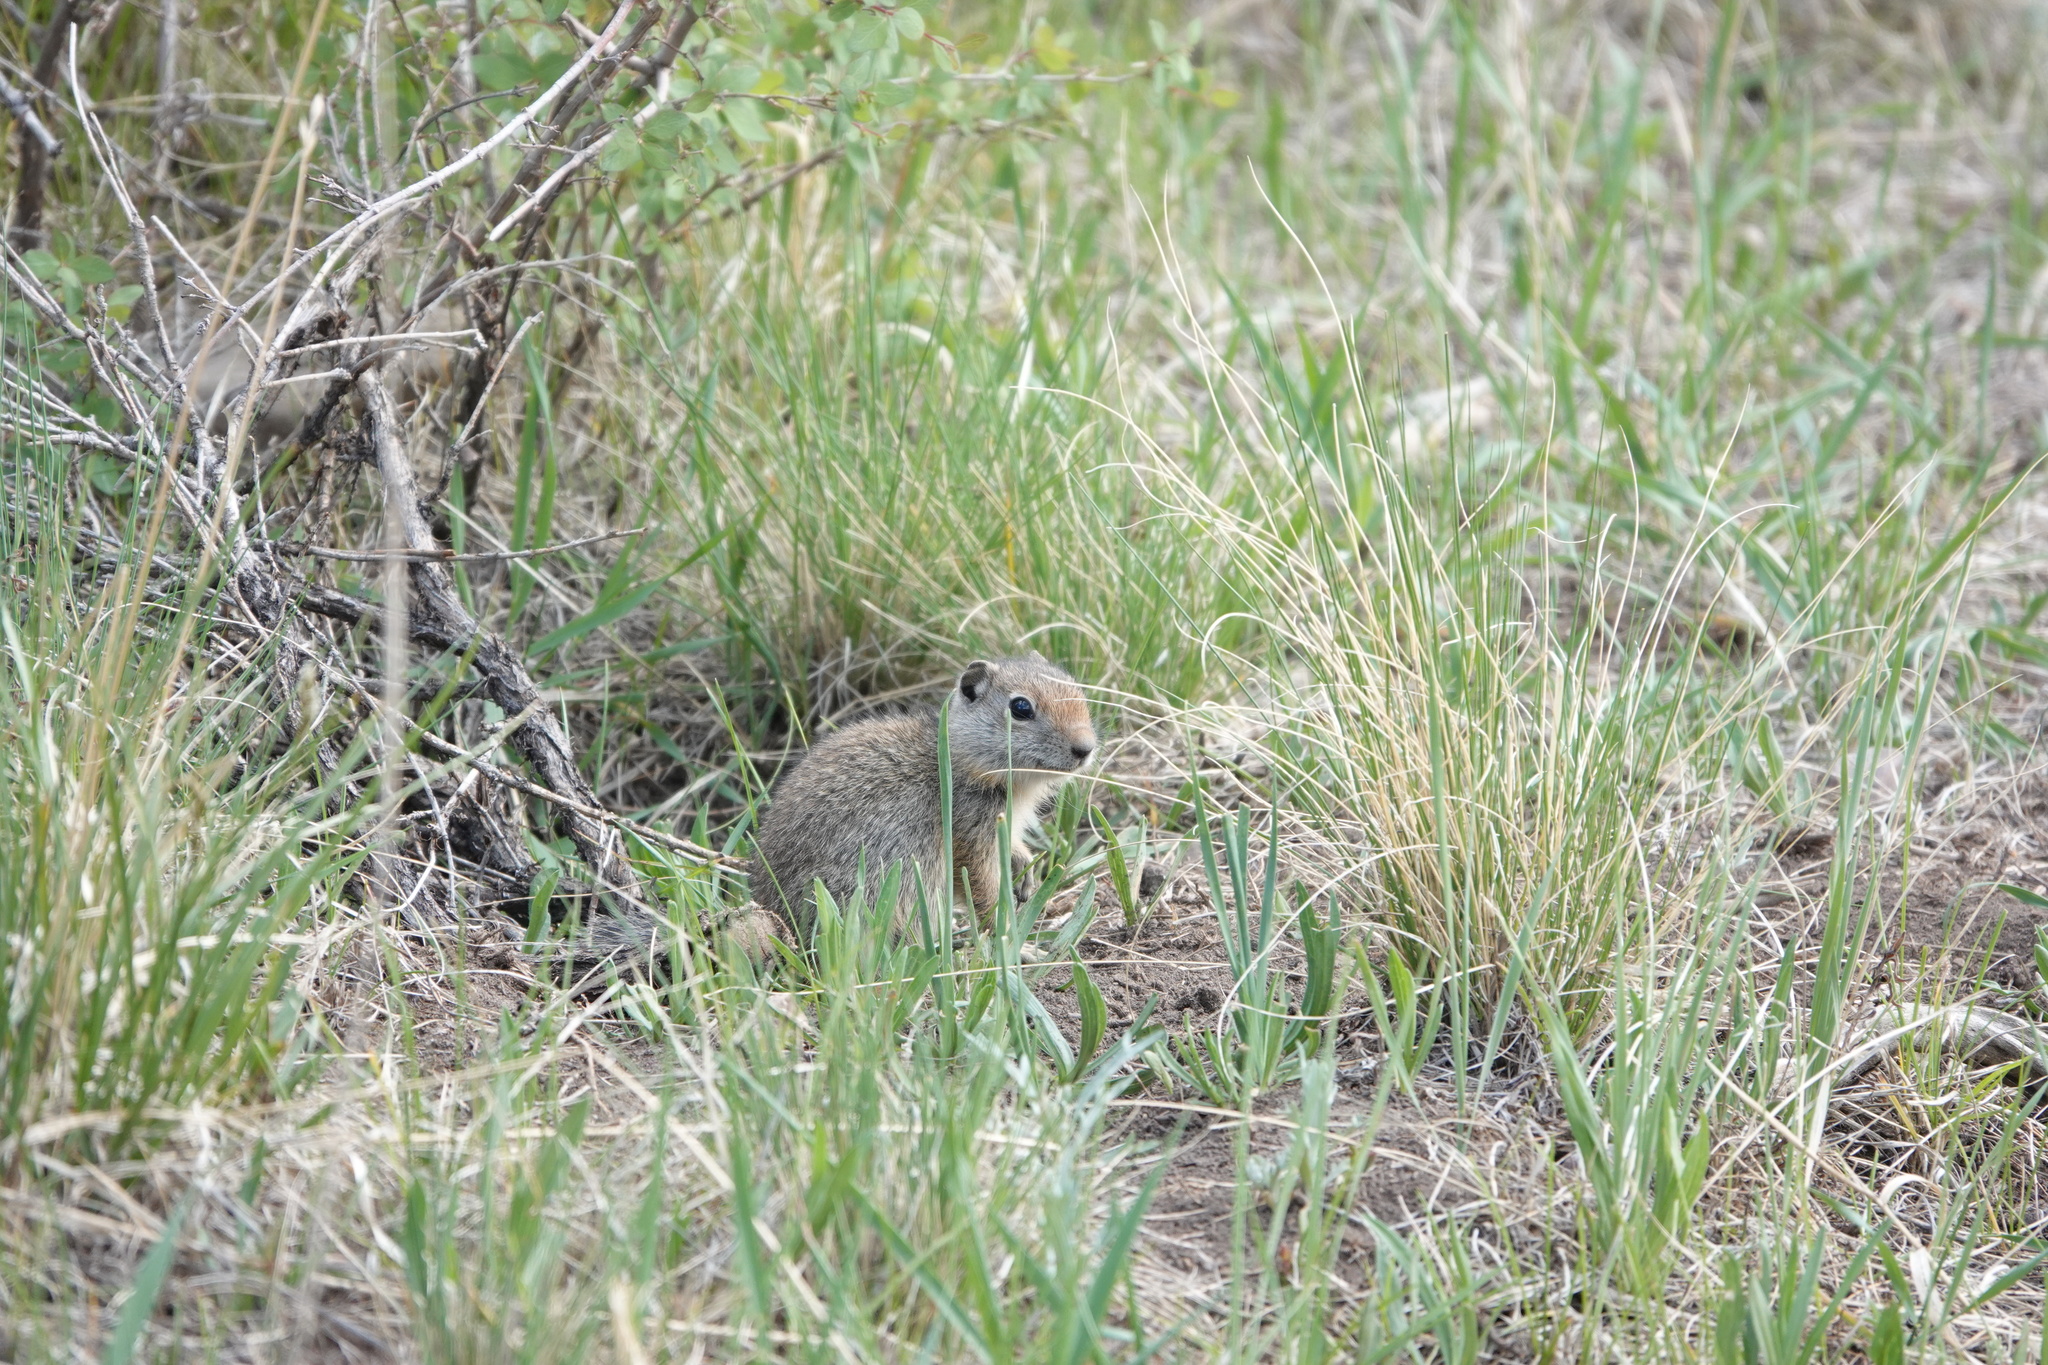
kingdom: Animalia
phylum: Chordata
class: Mammalia
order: Rodentia
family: Sciuridae
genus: Urocitellus
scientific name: Urocitellus armatus
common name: Uinta ground squirrel
